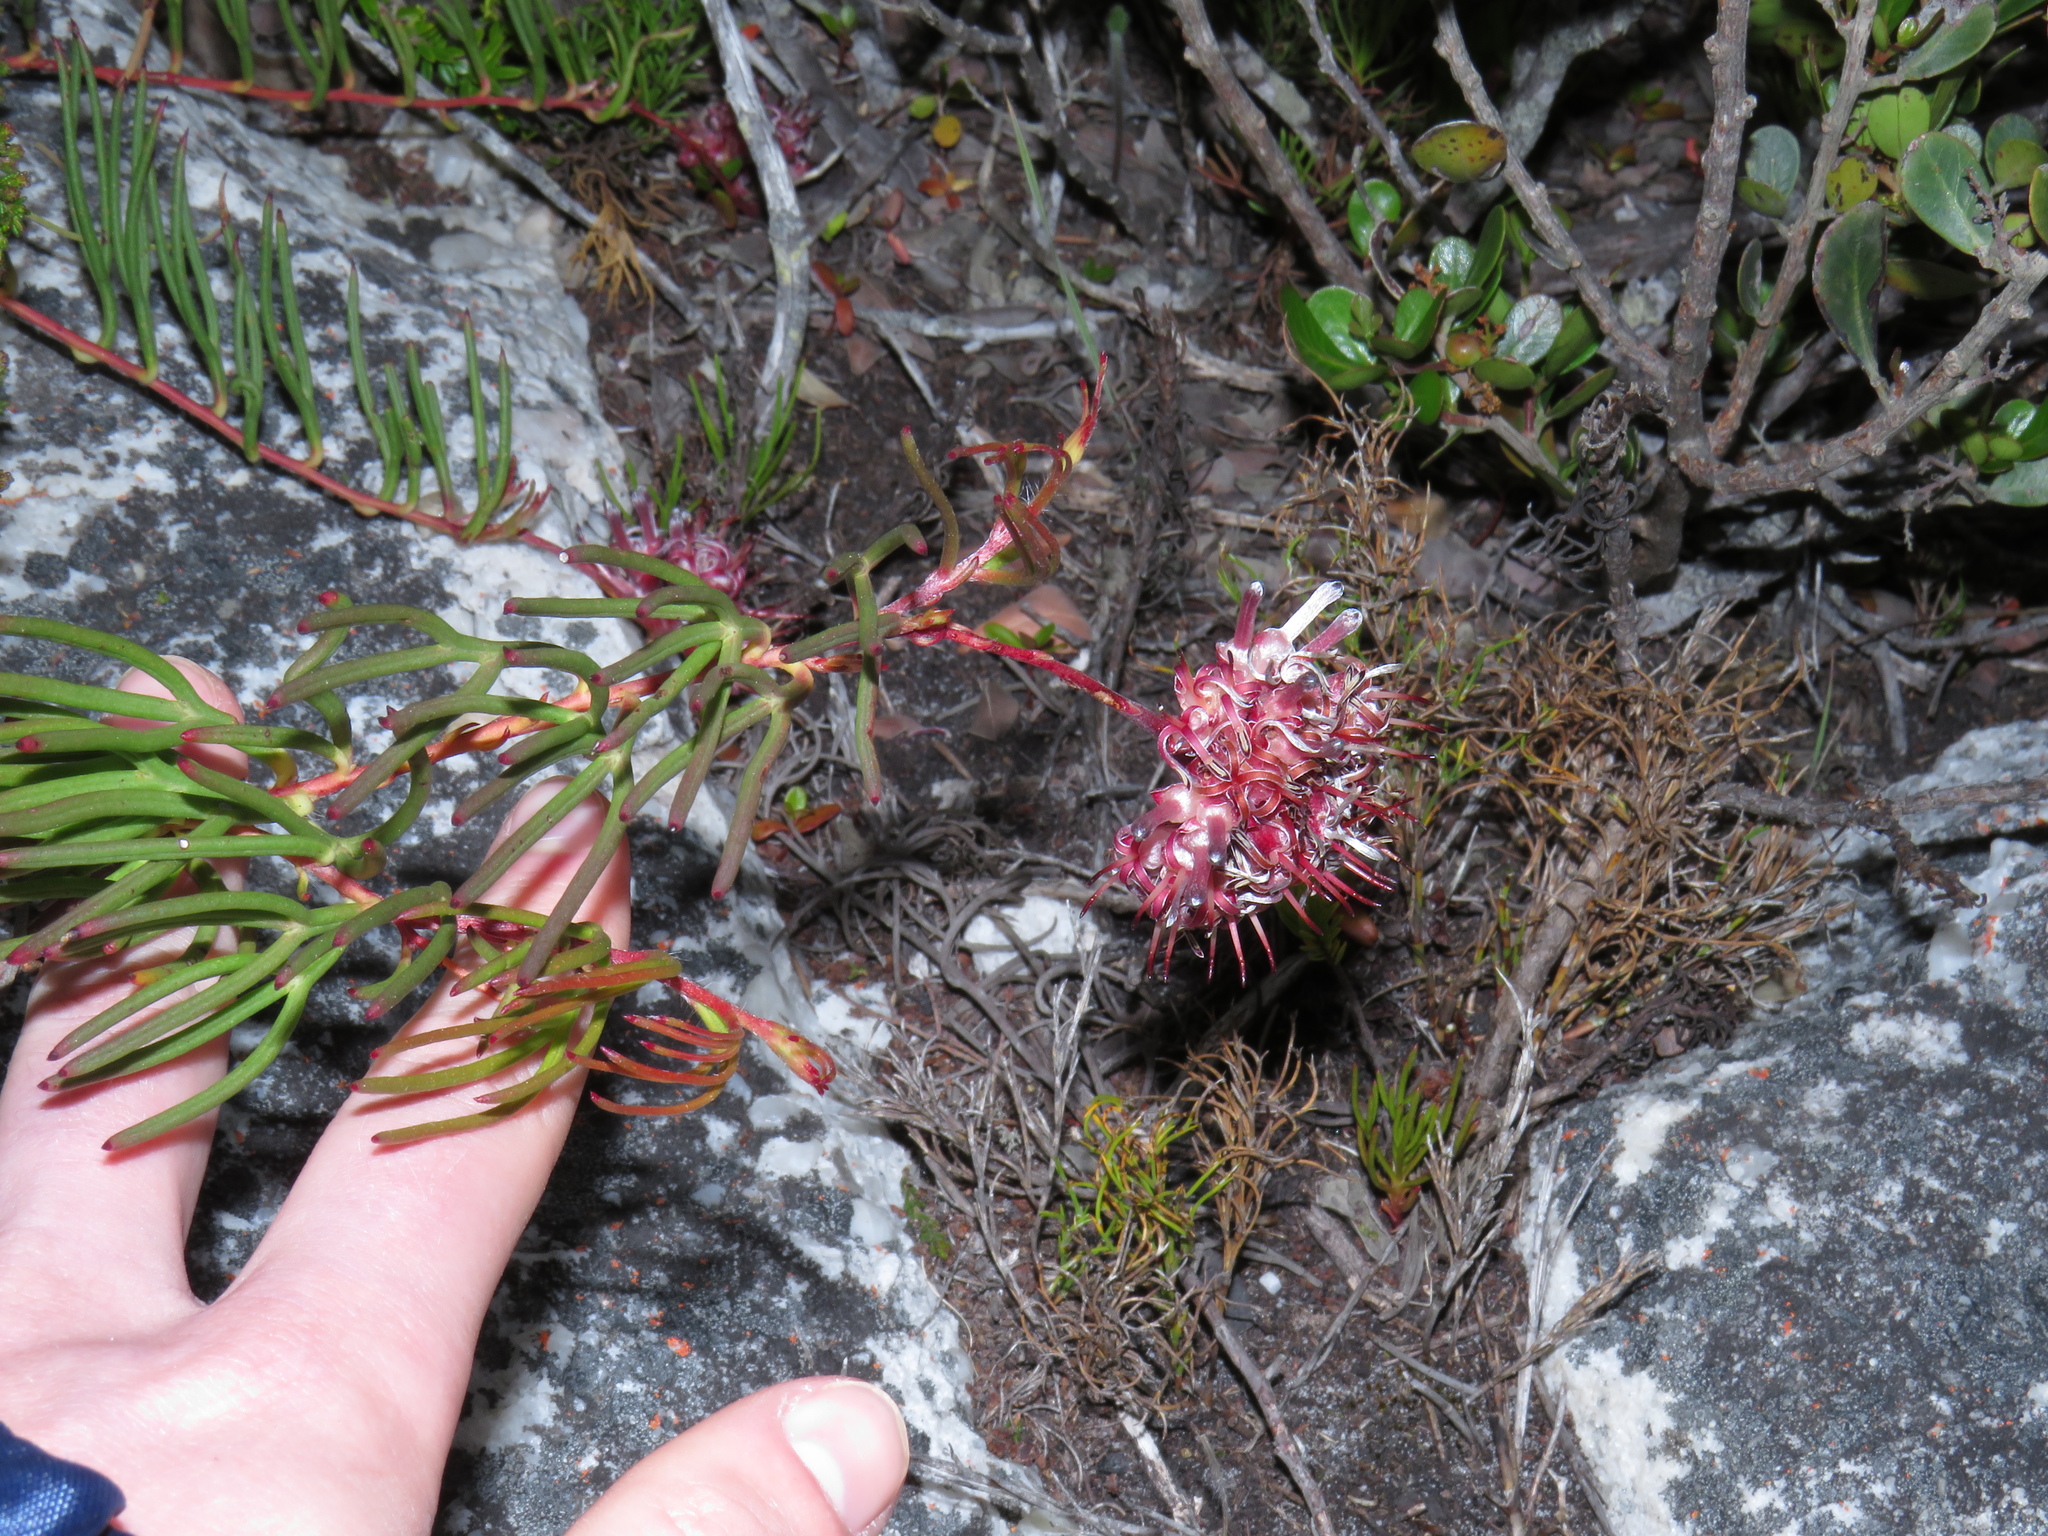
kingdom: Plantae
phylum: Tracheophyta
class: Magnoliopsida
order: Proteales
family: Proteaceae
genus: Serruria
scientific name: Serruria decumbens
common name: Peninsula spiderhead
